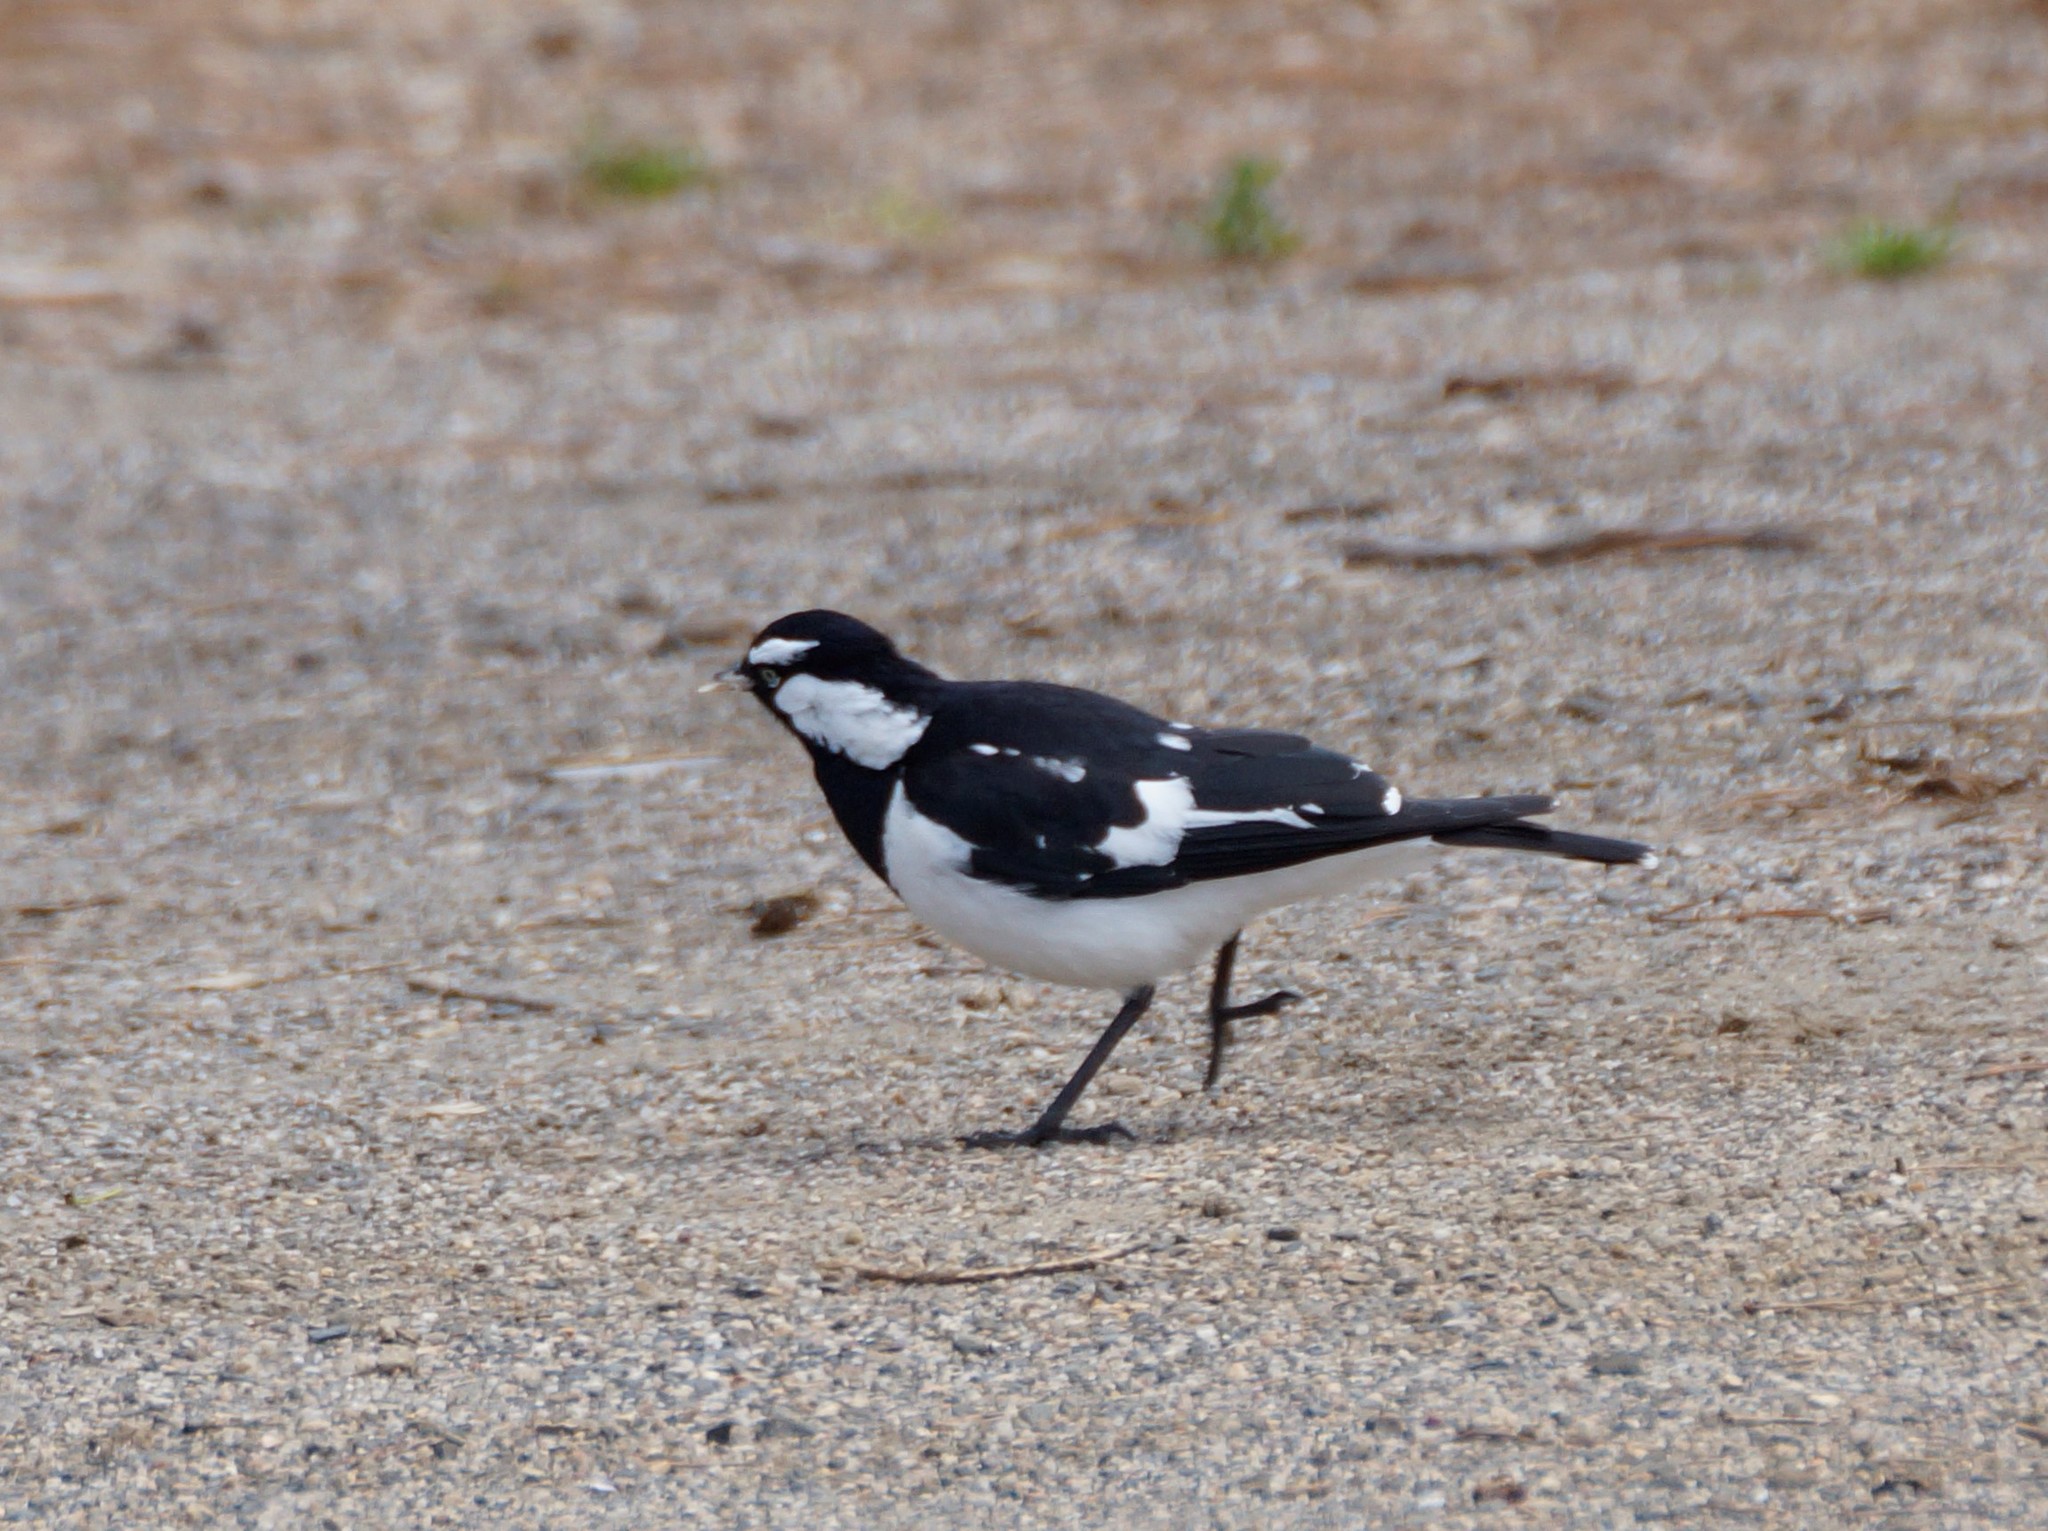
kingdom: Animalia
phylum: Chordata
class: Aves
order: Passeriformes
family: Monarchidae
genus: Grallina
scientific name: Grallina cyanoleuca
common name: Magpie-lark
